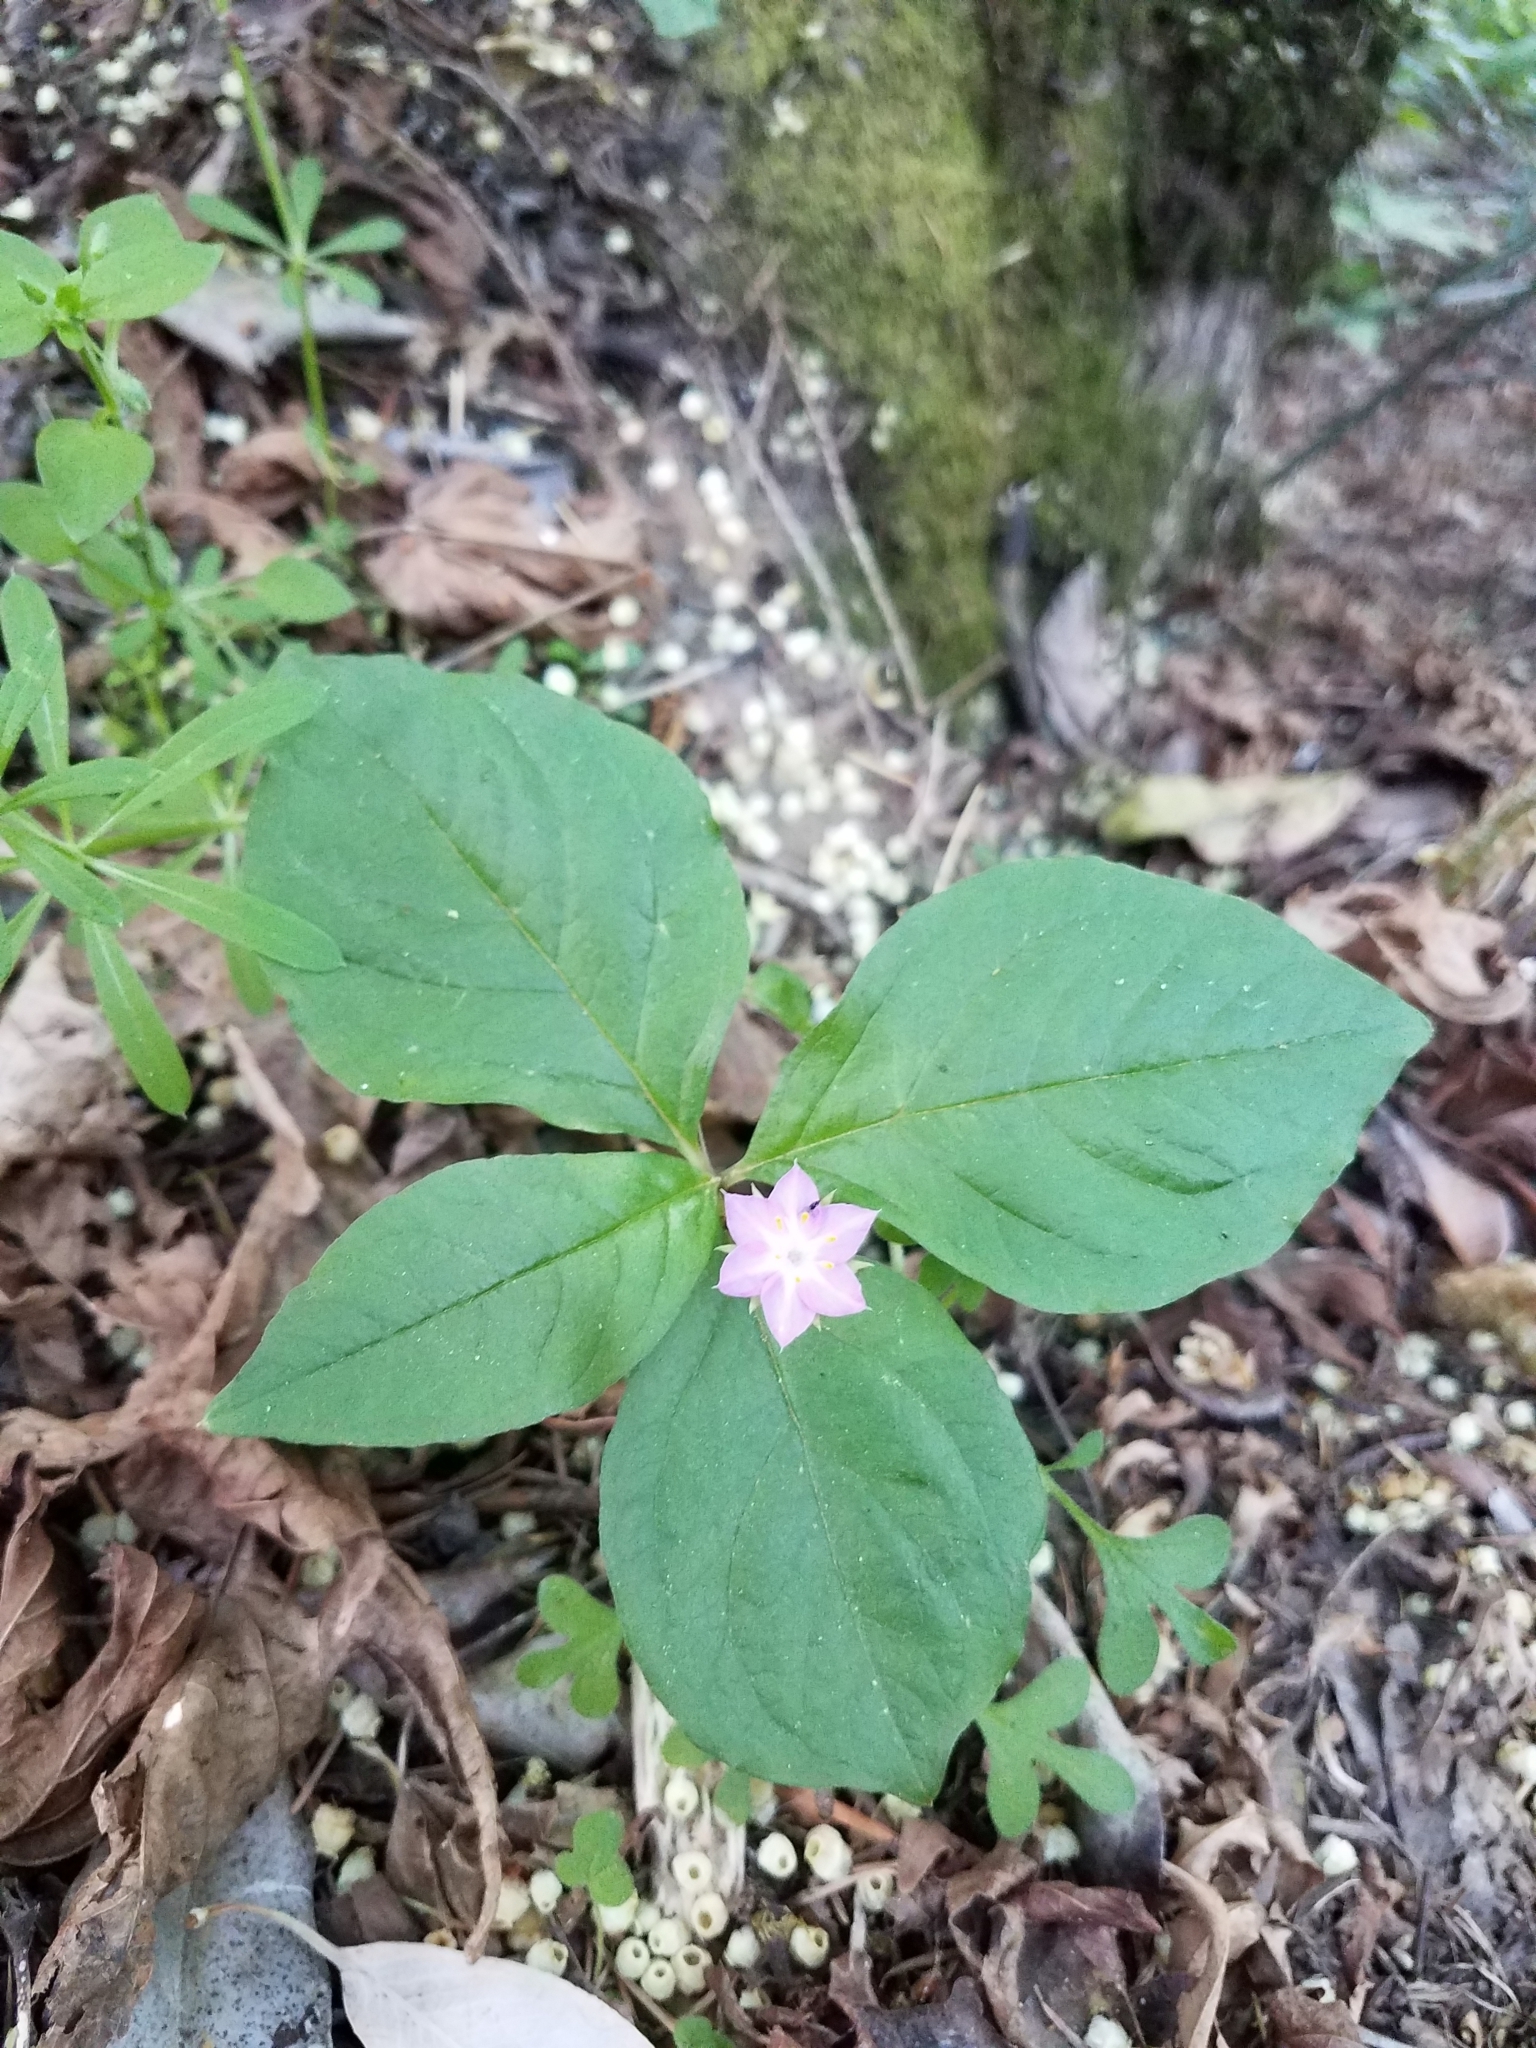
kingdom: Plantae
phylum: Tracheophyta
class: Magnoliopsida
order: Ericales
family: Primulaceae
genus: Lysimachia
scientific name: Lysimachia latifolia
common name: Pacific starflower
